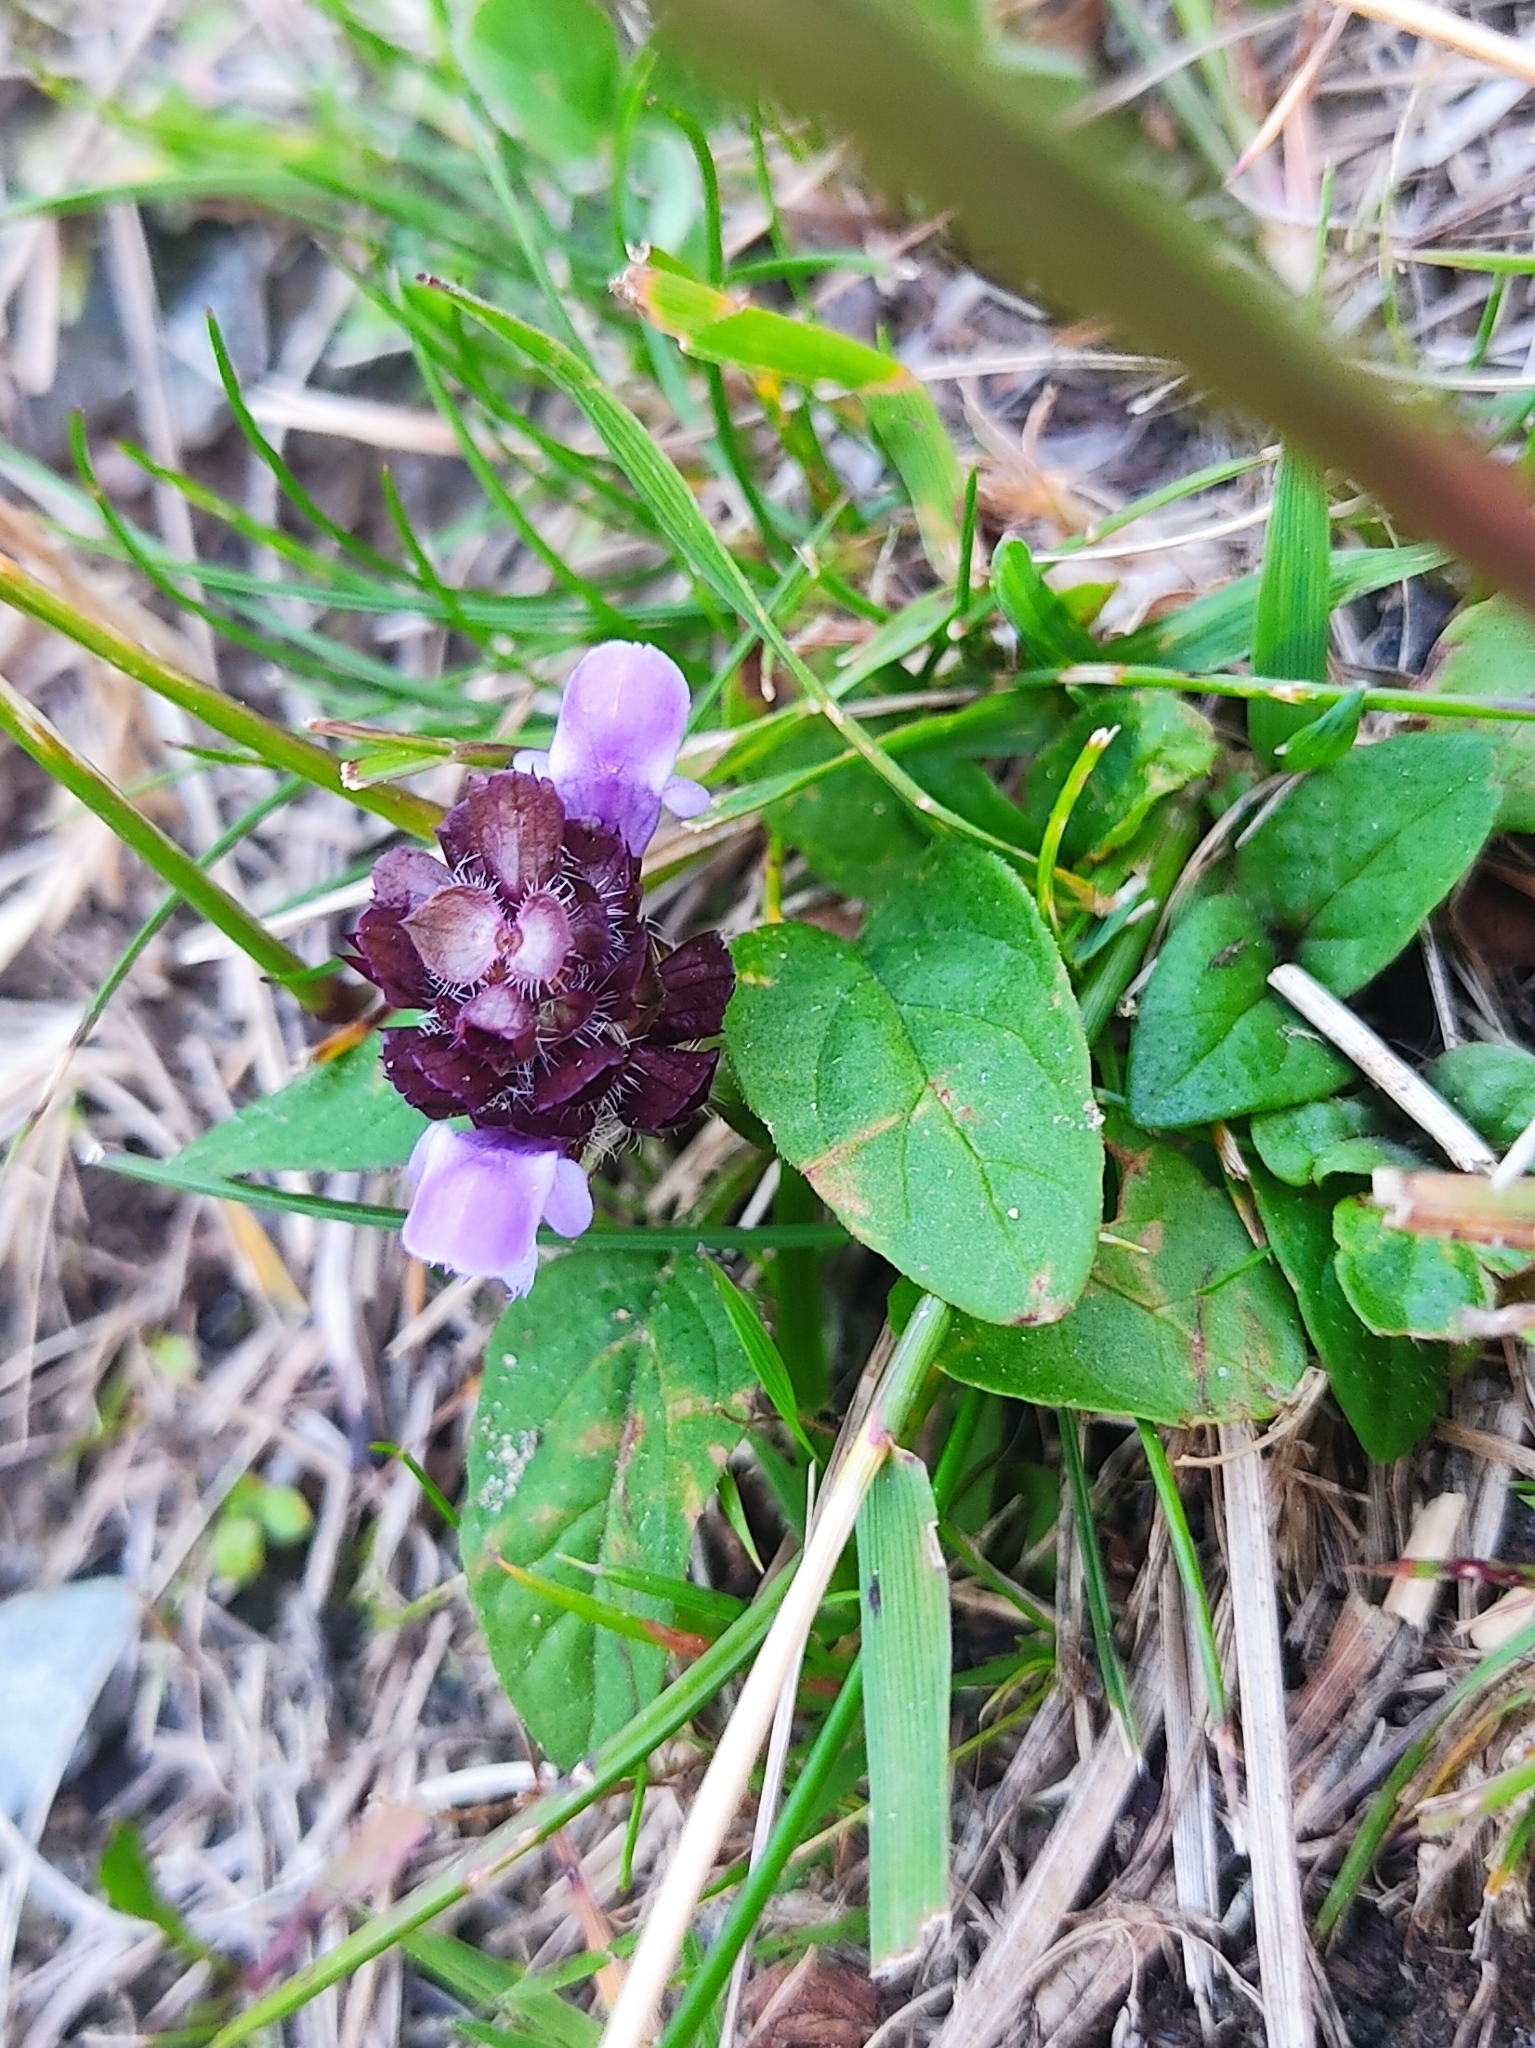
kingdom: Plantae
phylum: Tracheophyta
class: Magnoliopsida
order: Lamiales
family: Lamiaceae
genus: Prunella
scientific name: Prunella vulgaris
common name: Heal-all
